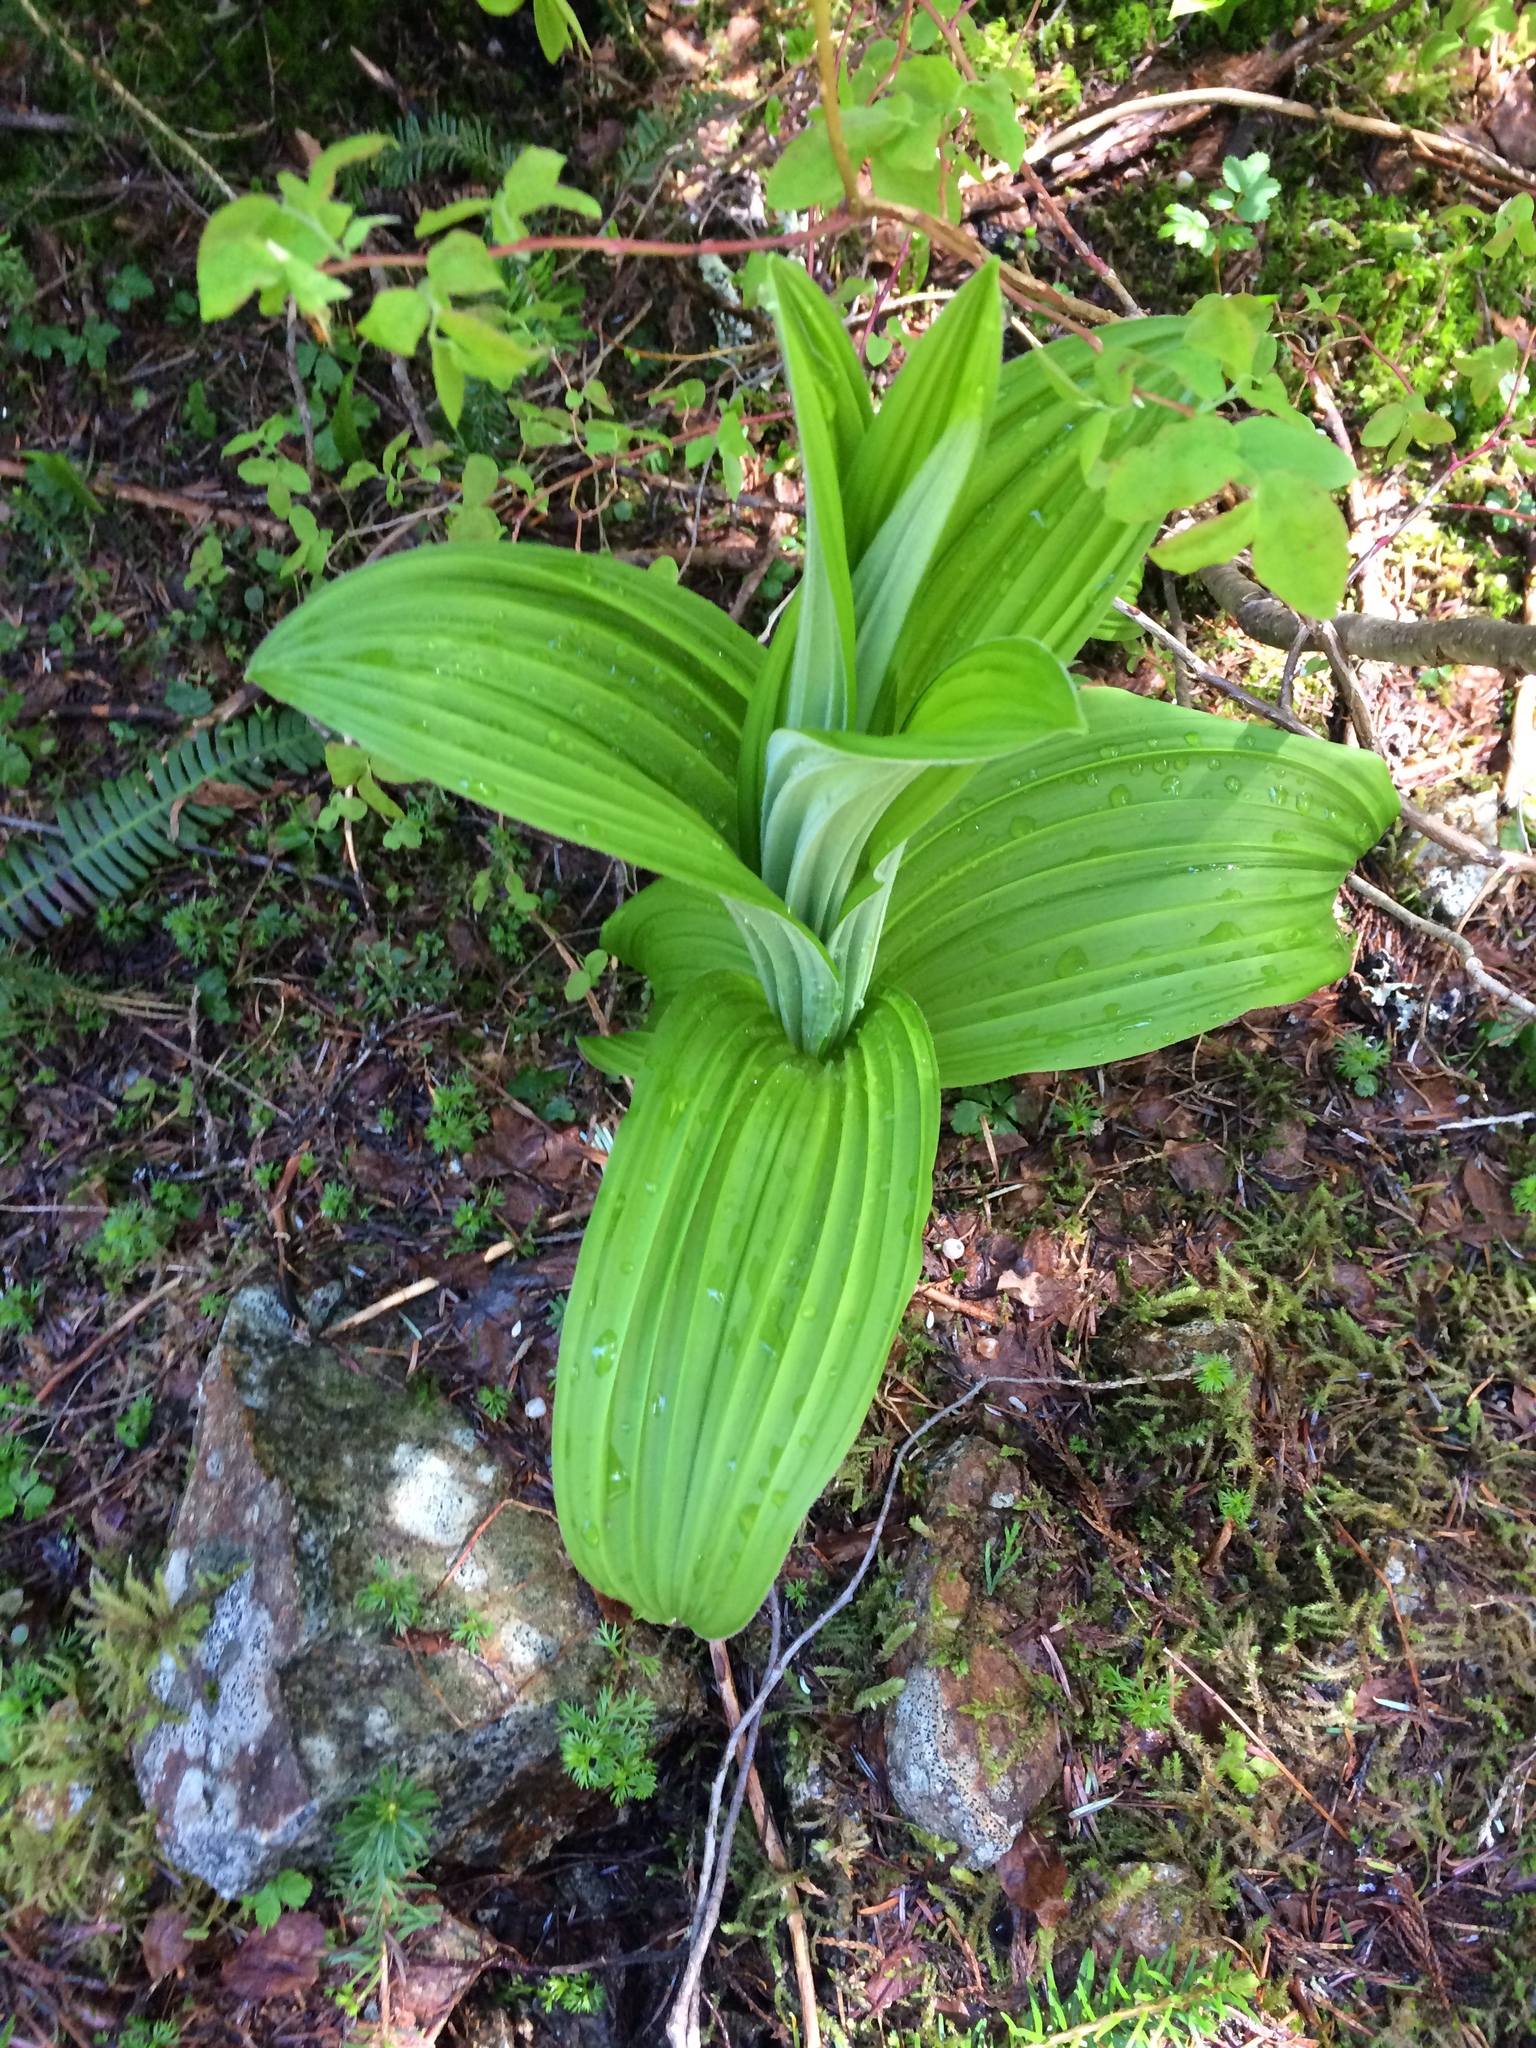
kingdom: Plantae
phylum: Tracheophyta
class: Liliopsida
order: Liliales
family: Melanthiaceae
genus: Veratrum
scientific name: Veratrum viride
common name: American false hellebore
